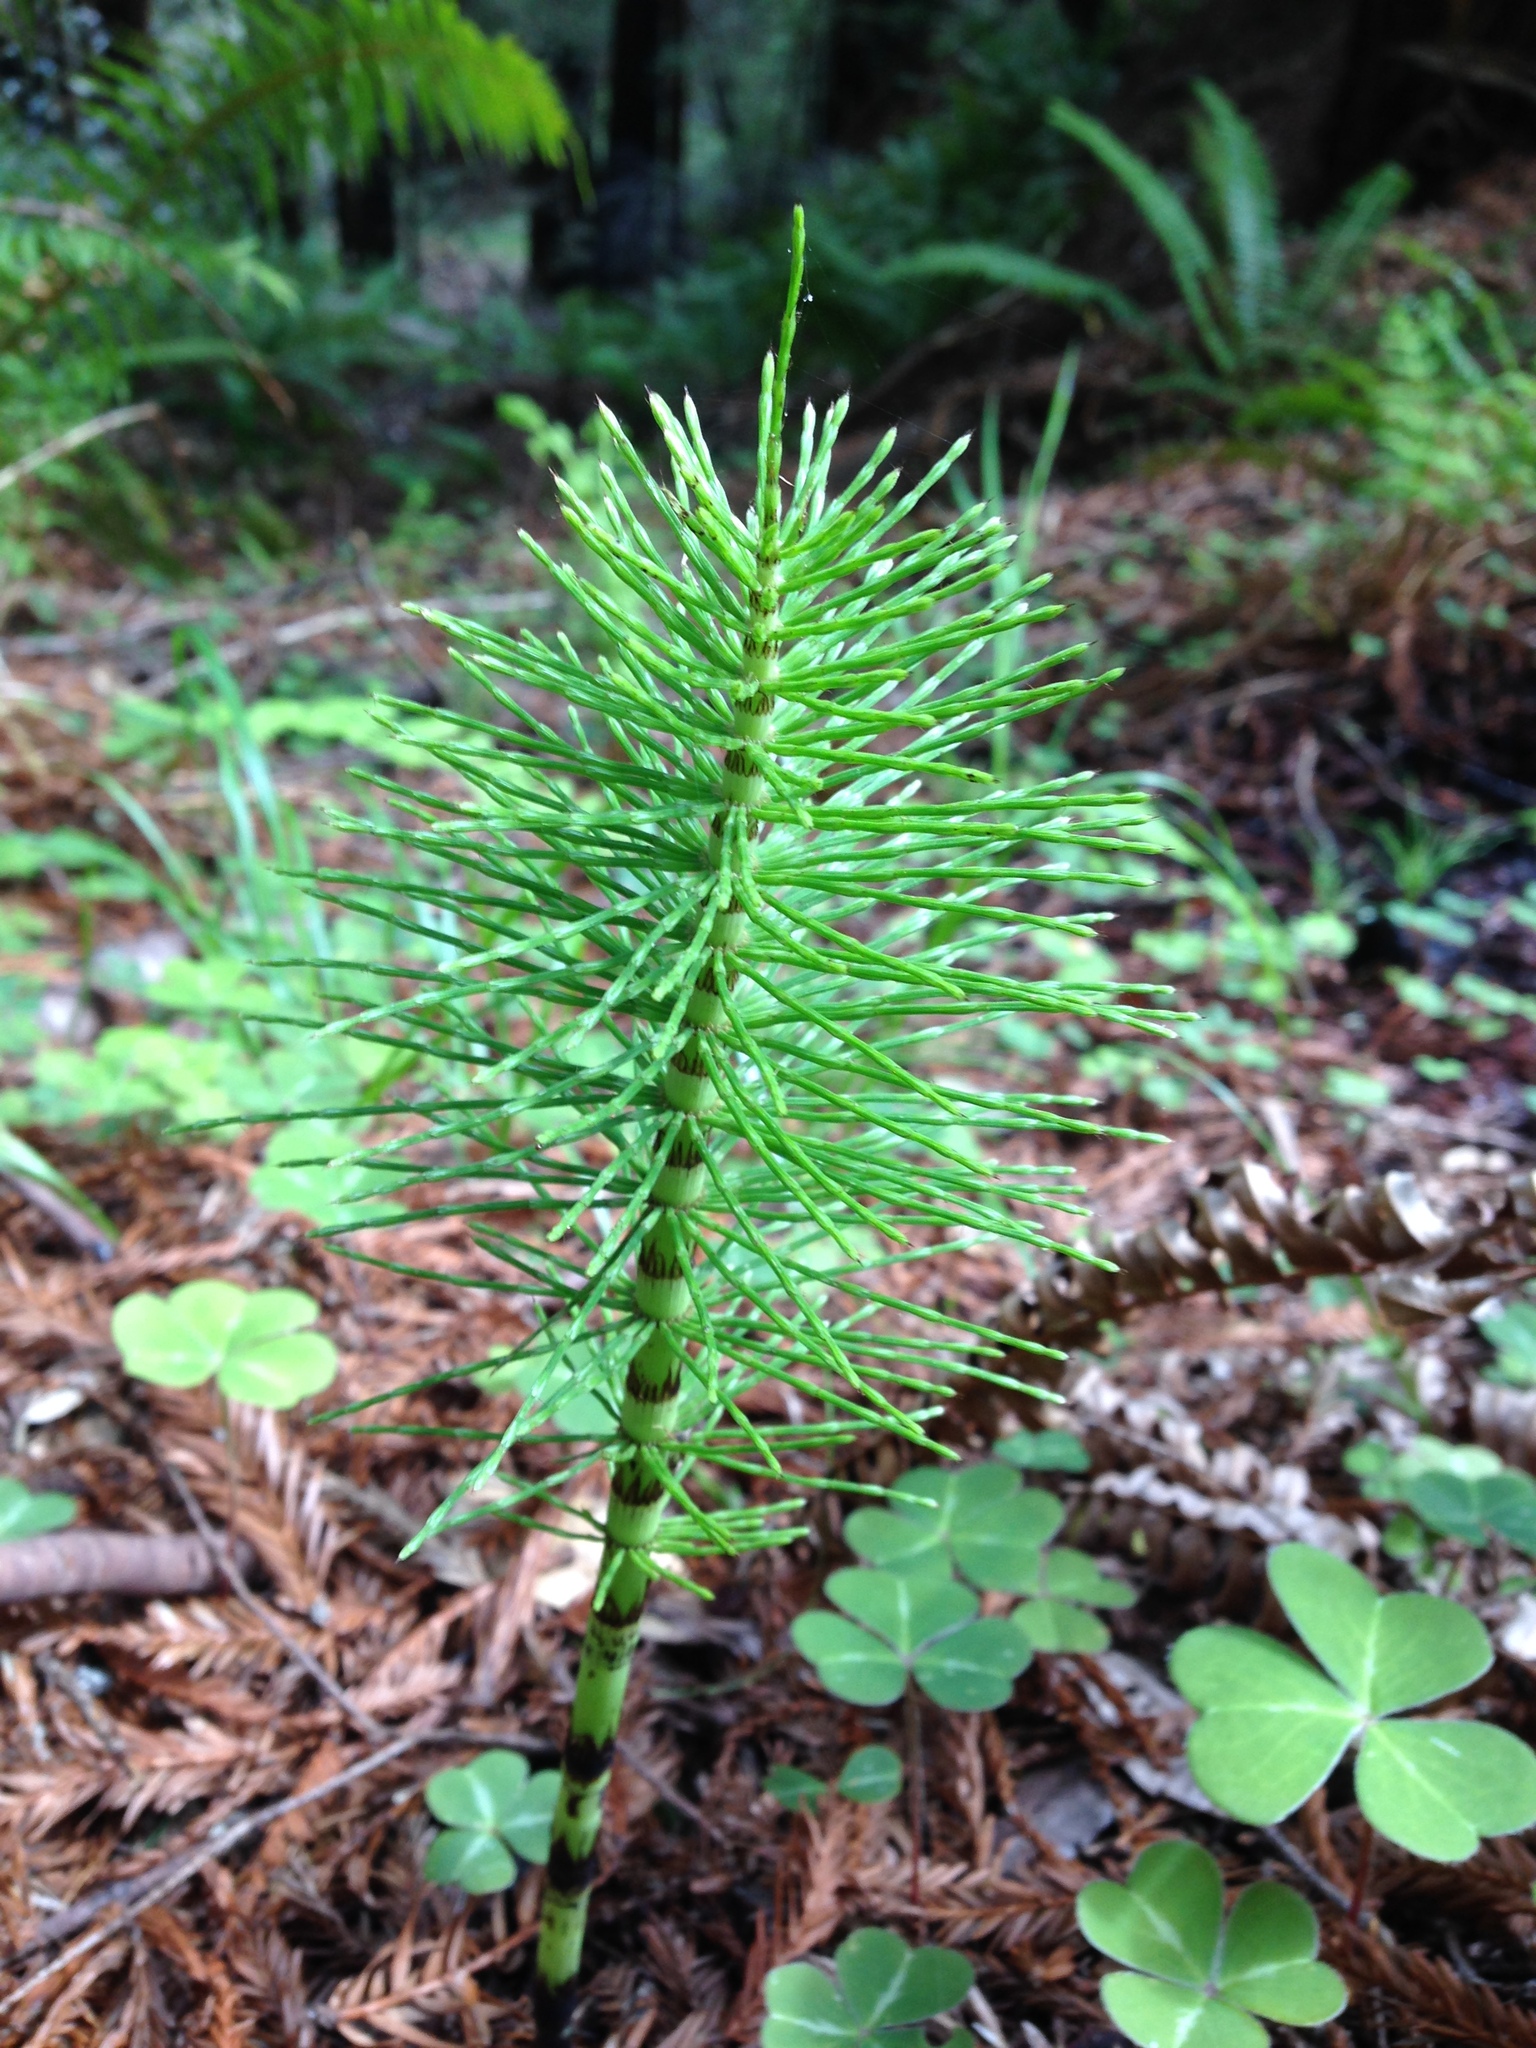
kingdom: Plantae
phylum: Tracheophyta
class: Polypodiopsida
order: Equisetales
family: Equisetaceae
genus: Equisetum
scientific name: Equisetum braunii
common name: Braun's horsetail
